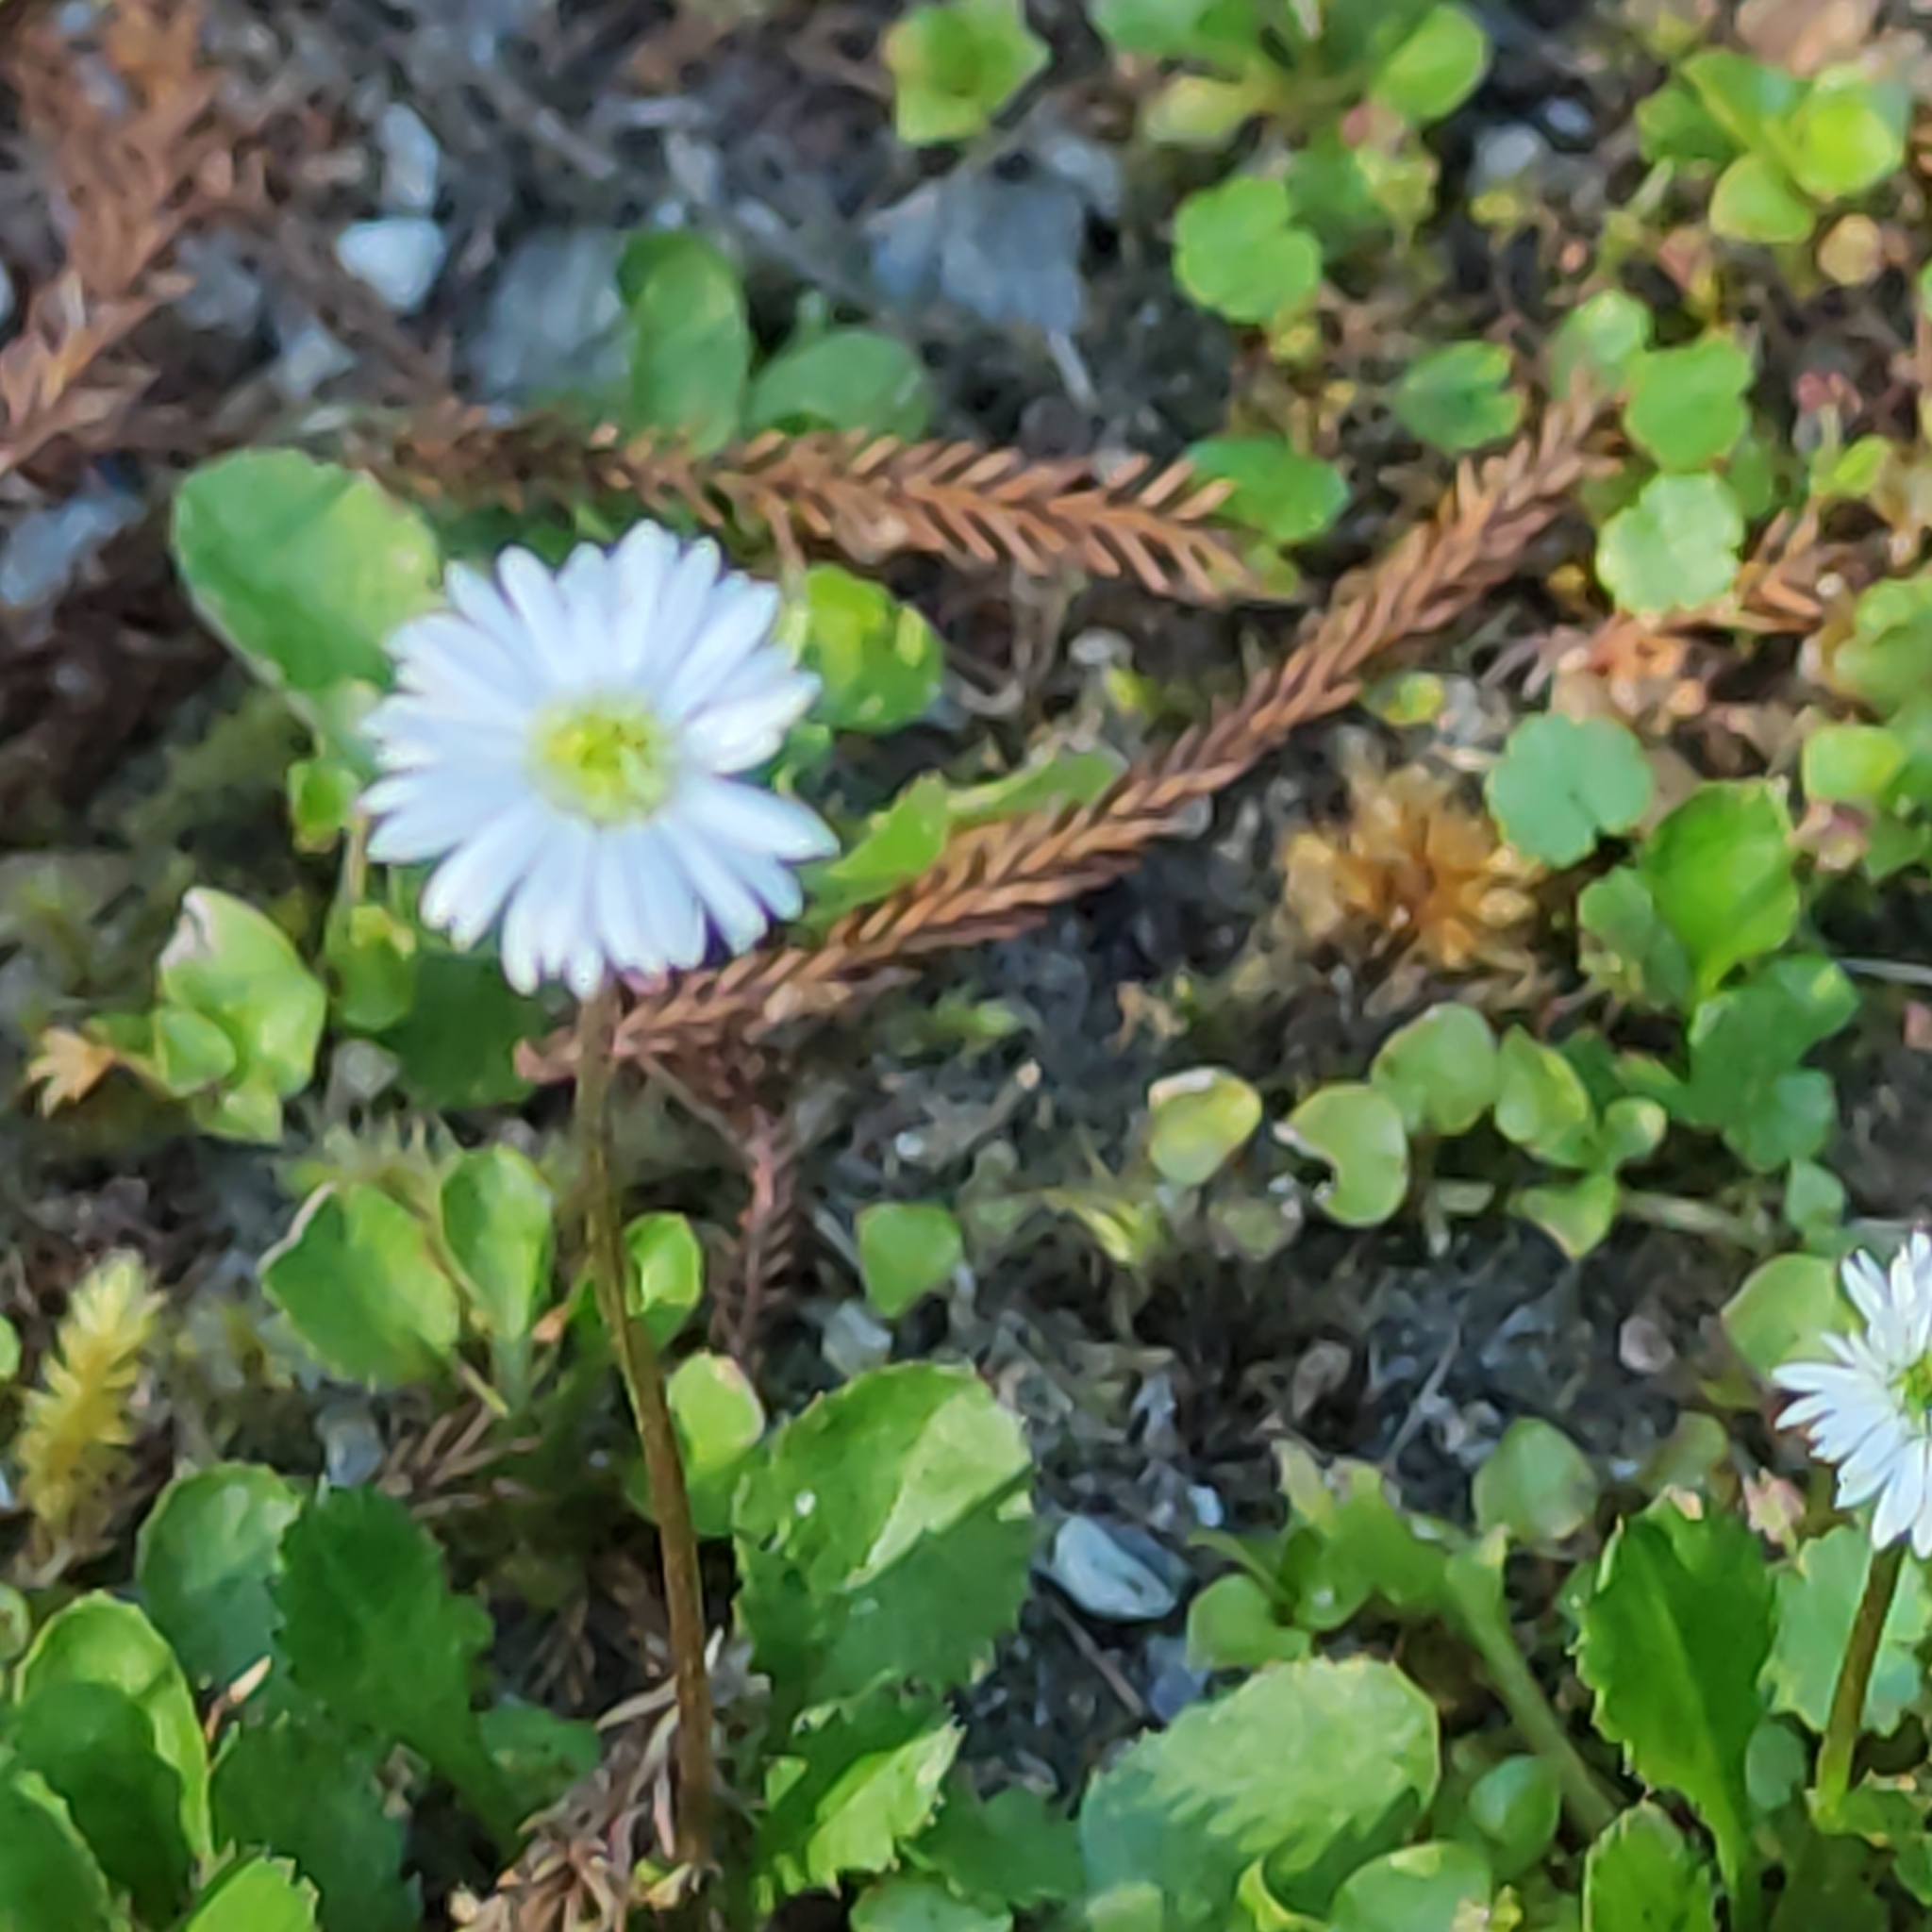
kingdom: Plantae
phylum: Tracheophyta
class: Magnoliopsida
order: Asterales
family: Asteraceae
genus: Lagenophora
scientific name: Lagenophora pumila
